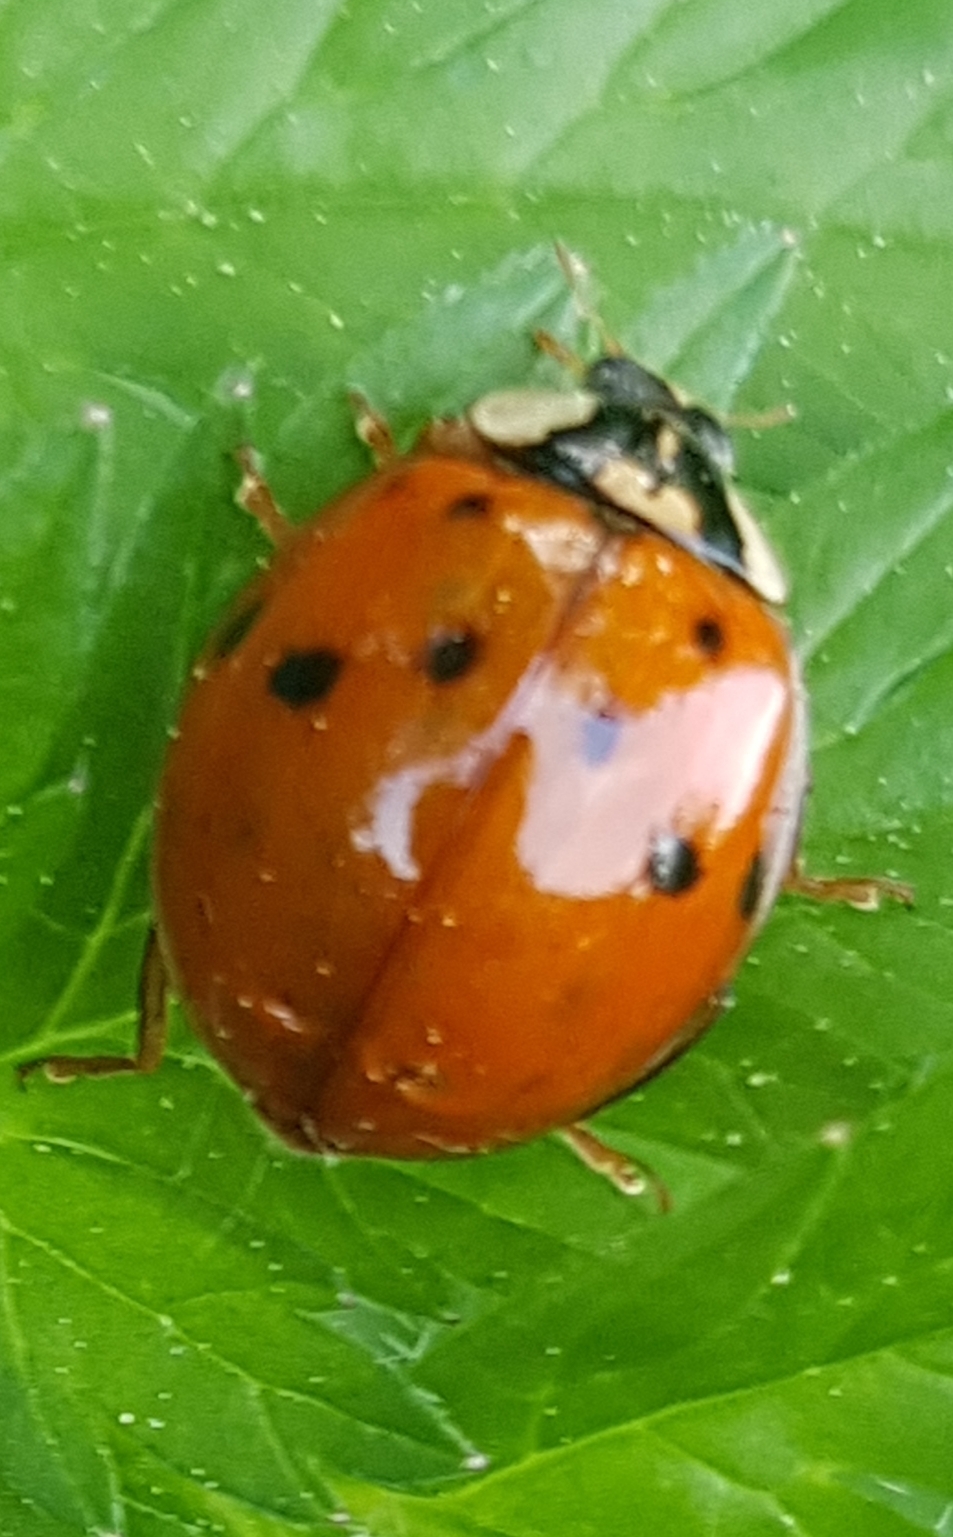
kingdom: Animalia
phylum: Arthropoda
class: Insecta
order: Coleoptera
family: Coccinellidae
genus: Harmonia
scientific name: Harmonia axyridis
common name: Harlequin ladybird
